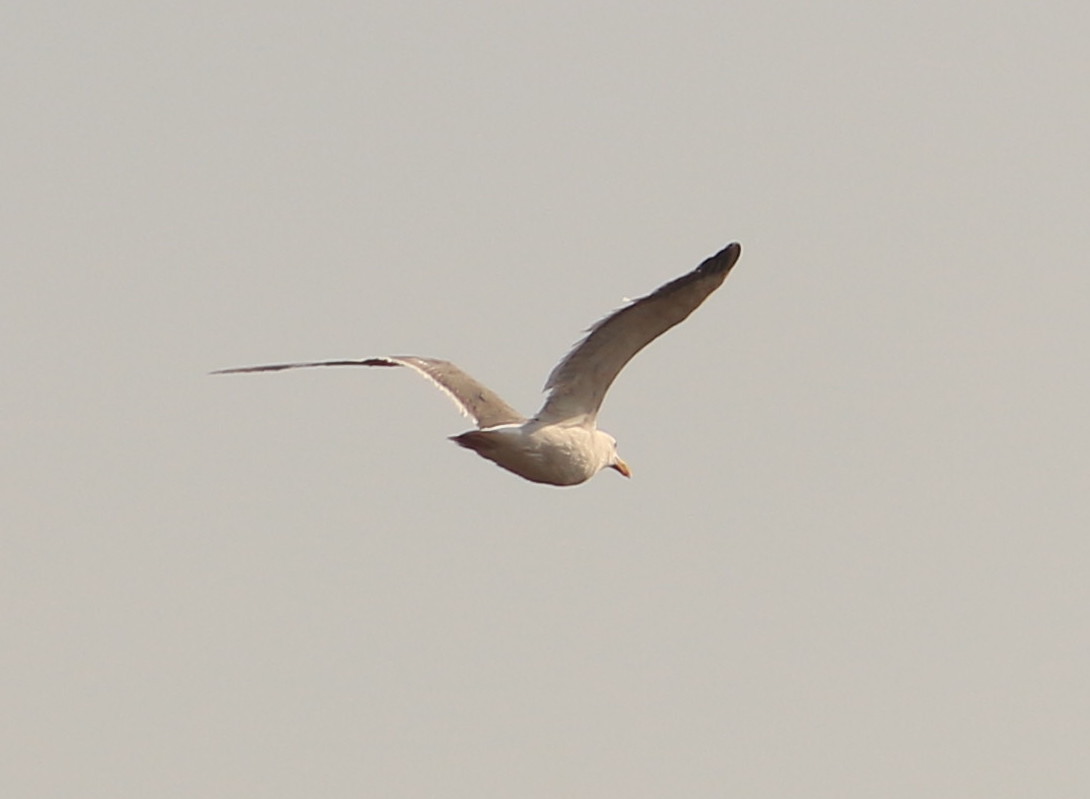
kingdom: Animalia
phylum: Chordata
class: Aves
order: Charadriiformes
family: Laridae
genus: Larus
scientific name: Larus occidentalis
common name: Western gull
